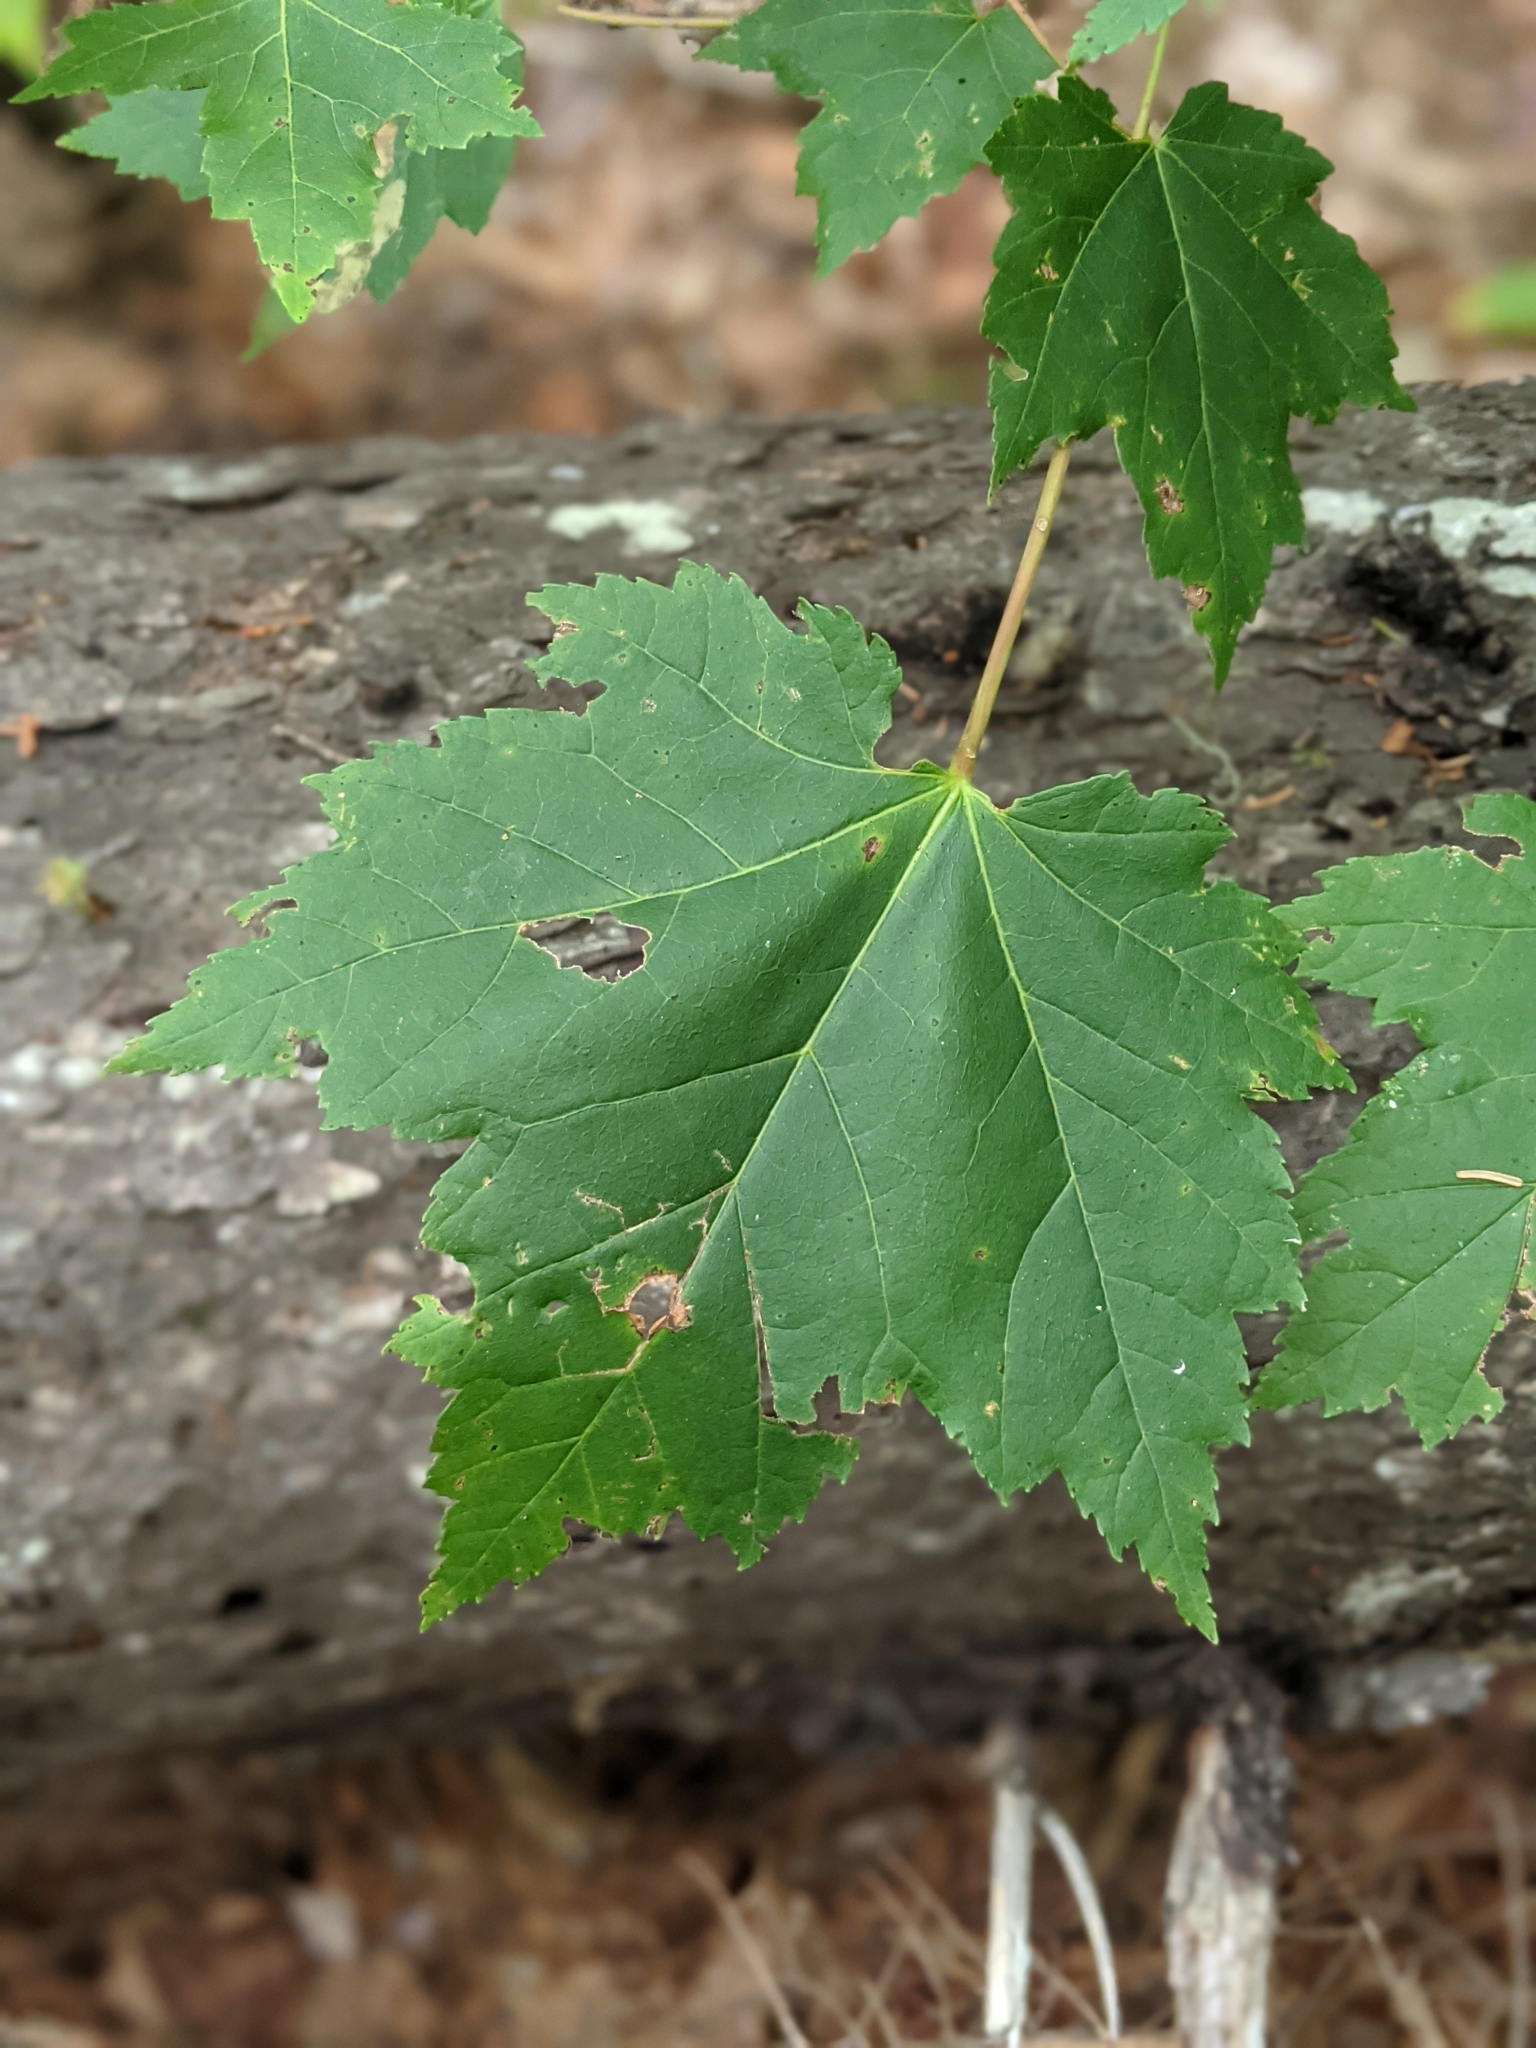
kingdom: Plantae
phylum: Tracheophyta
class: Magnoliopsida
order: Sapindales
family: Sapindaceae
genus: Acer
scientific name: Acer rubrum
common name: Red maple
